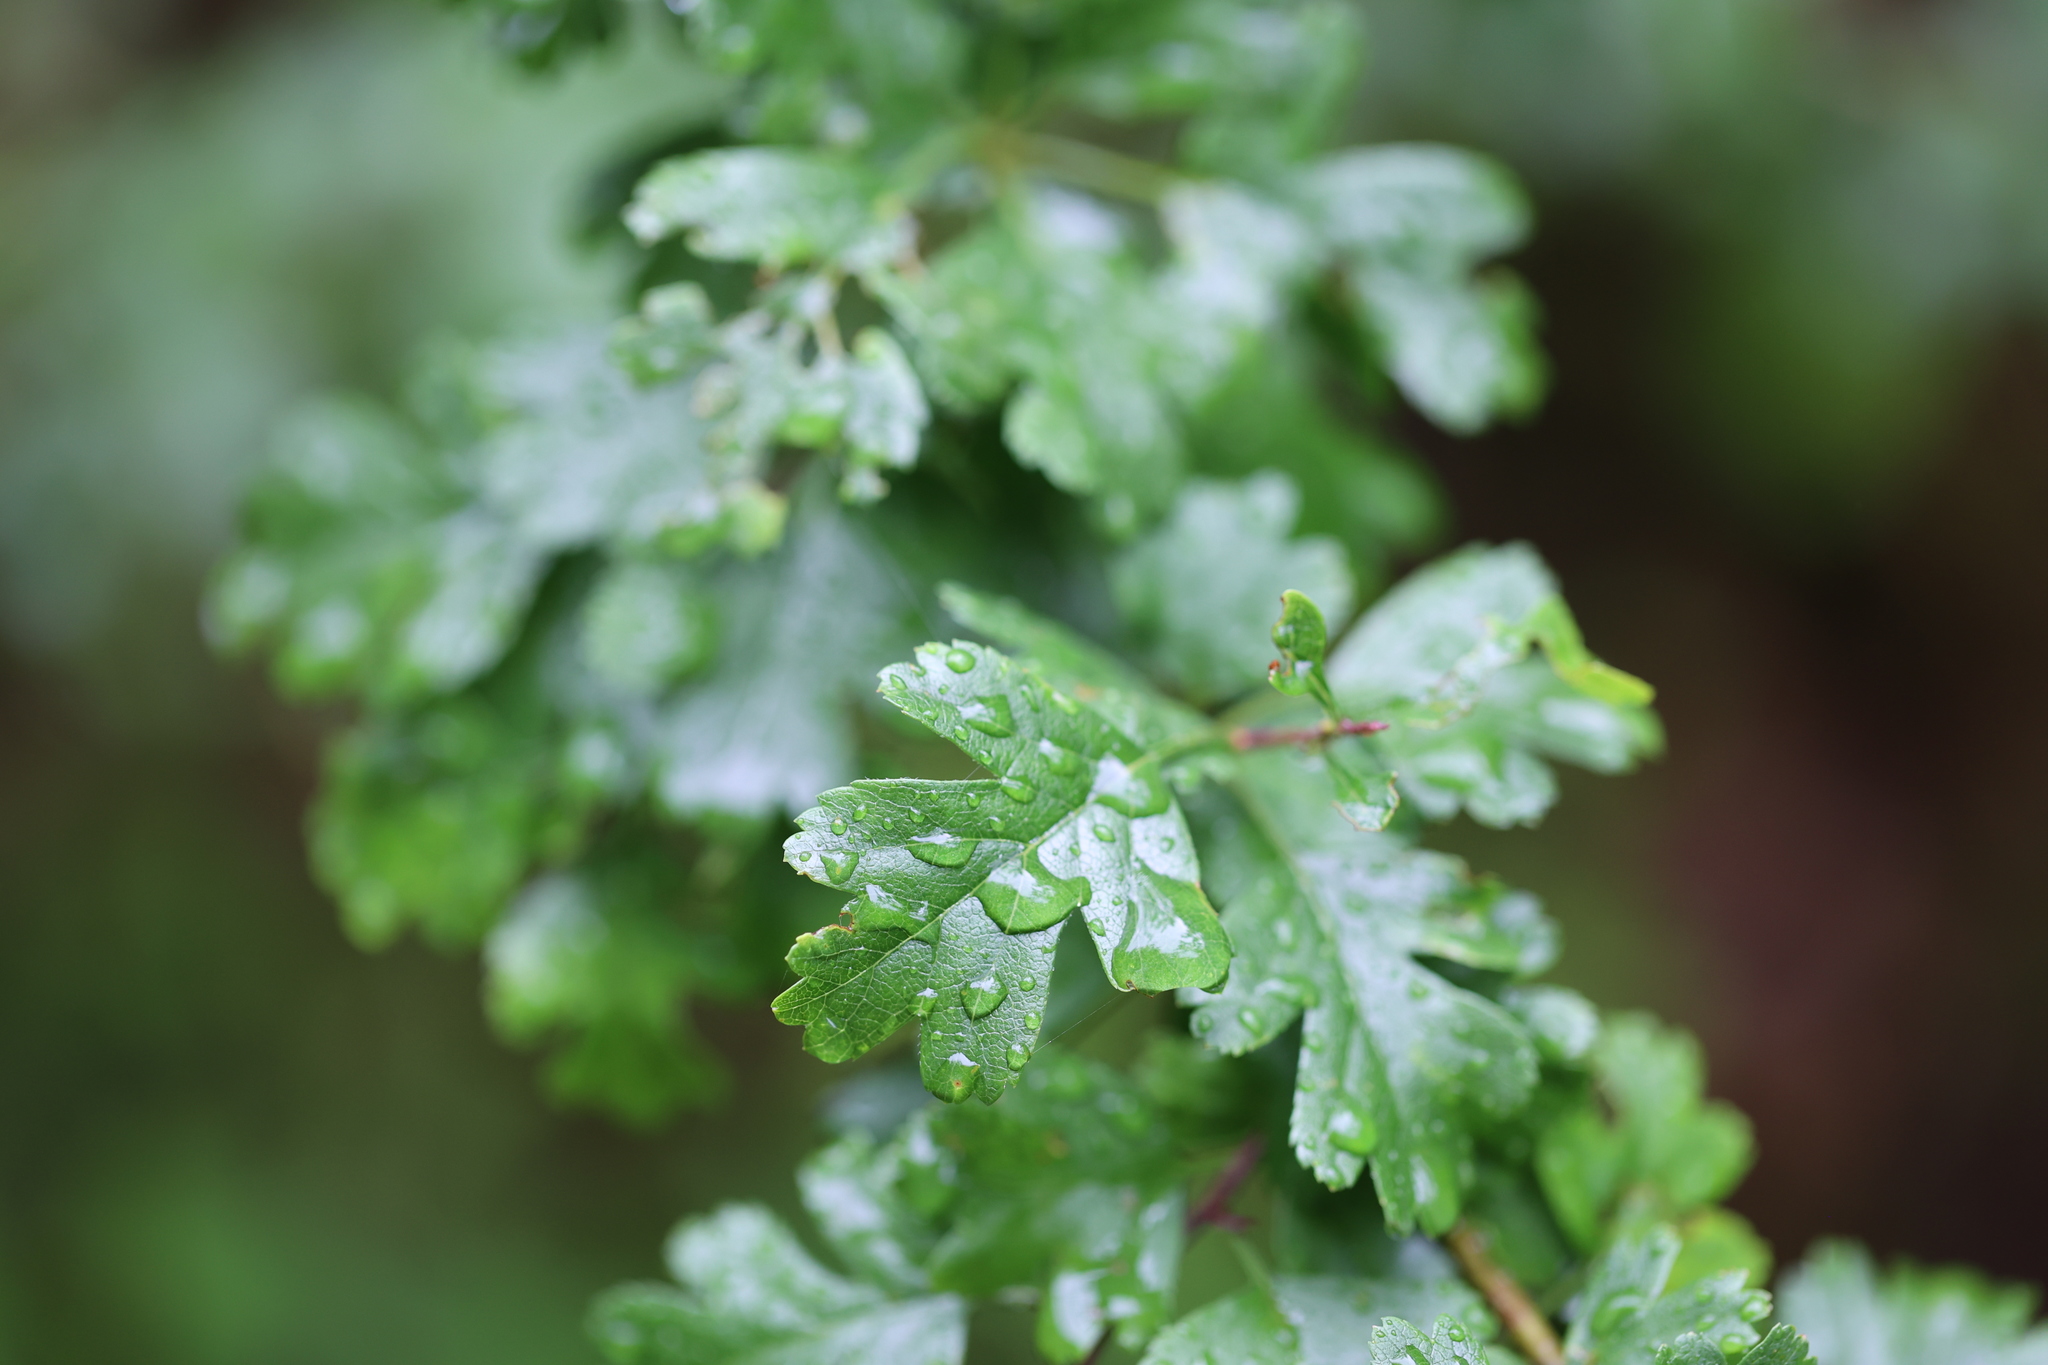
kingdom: Plantae
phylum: Tracheophyta
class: Magnoliopsida
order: Rosales
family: Rosaceae
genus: Crataegus
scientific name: Crataegus monogyna
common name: Hawthorn
